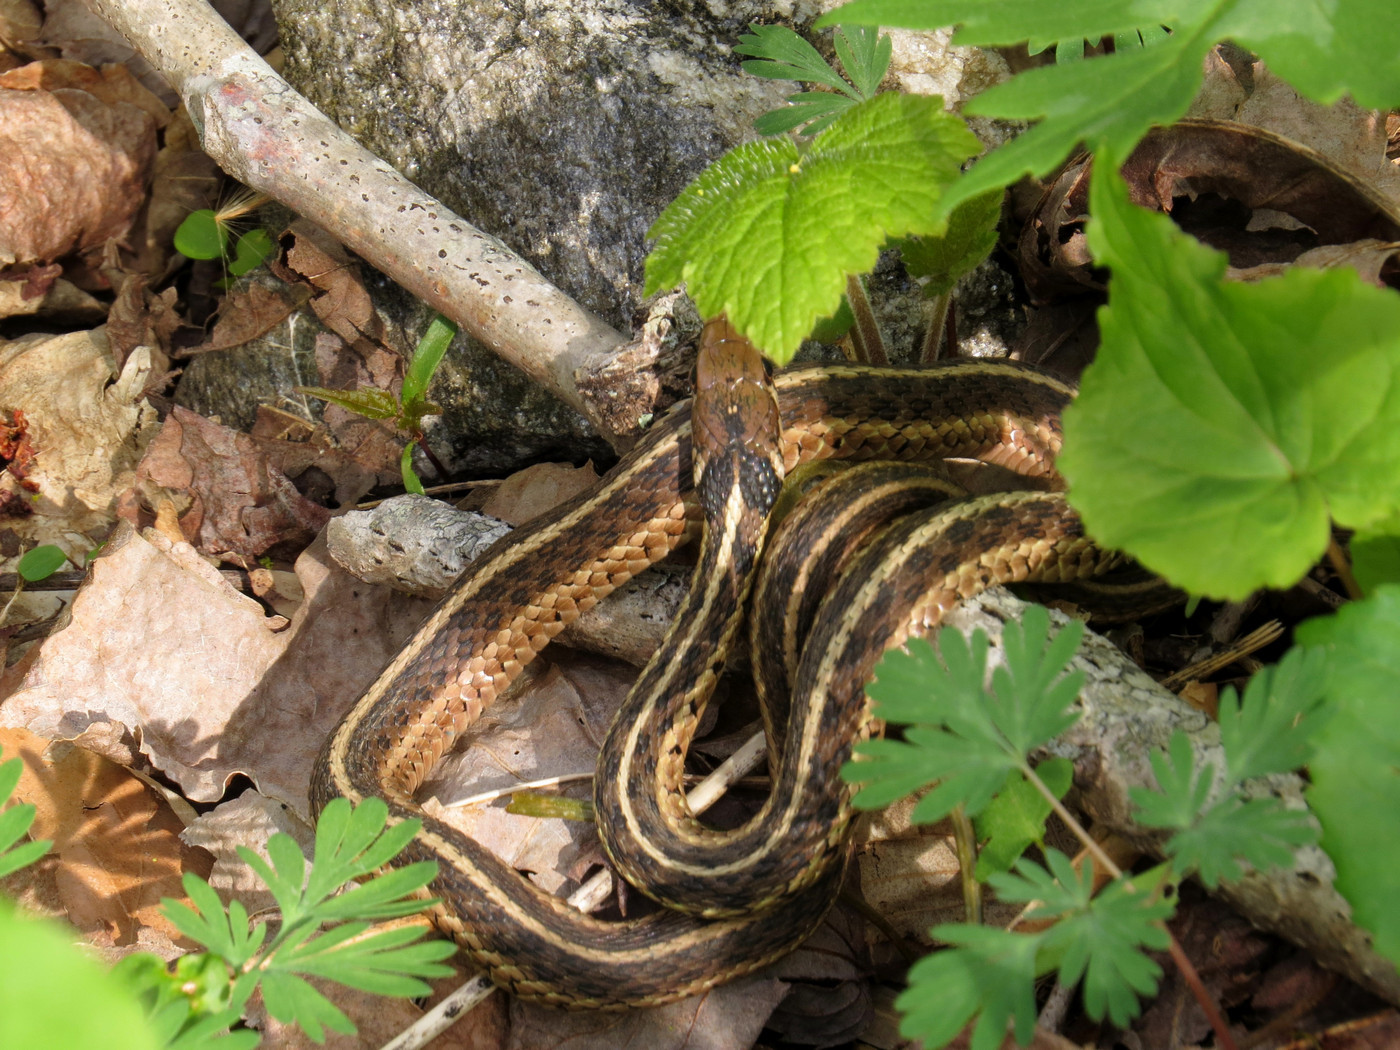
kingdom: Animalia
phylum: Chordata
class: Squamata
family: Colubridae
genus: Thamnophis
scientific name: Thamnophis sirtalis
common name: Common garter snake
